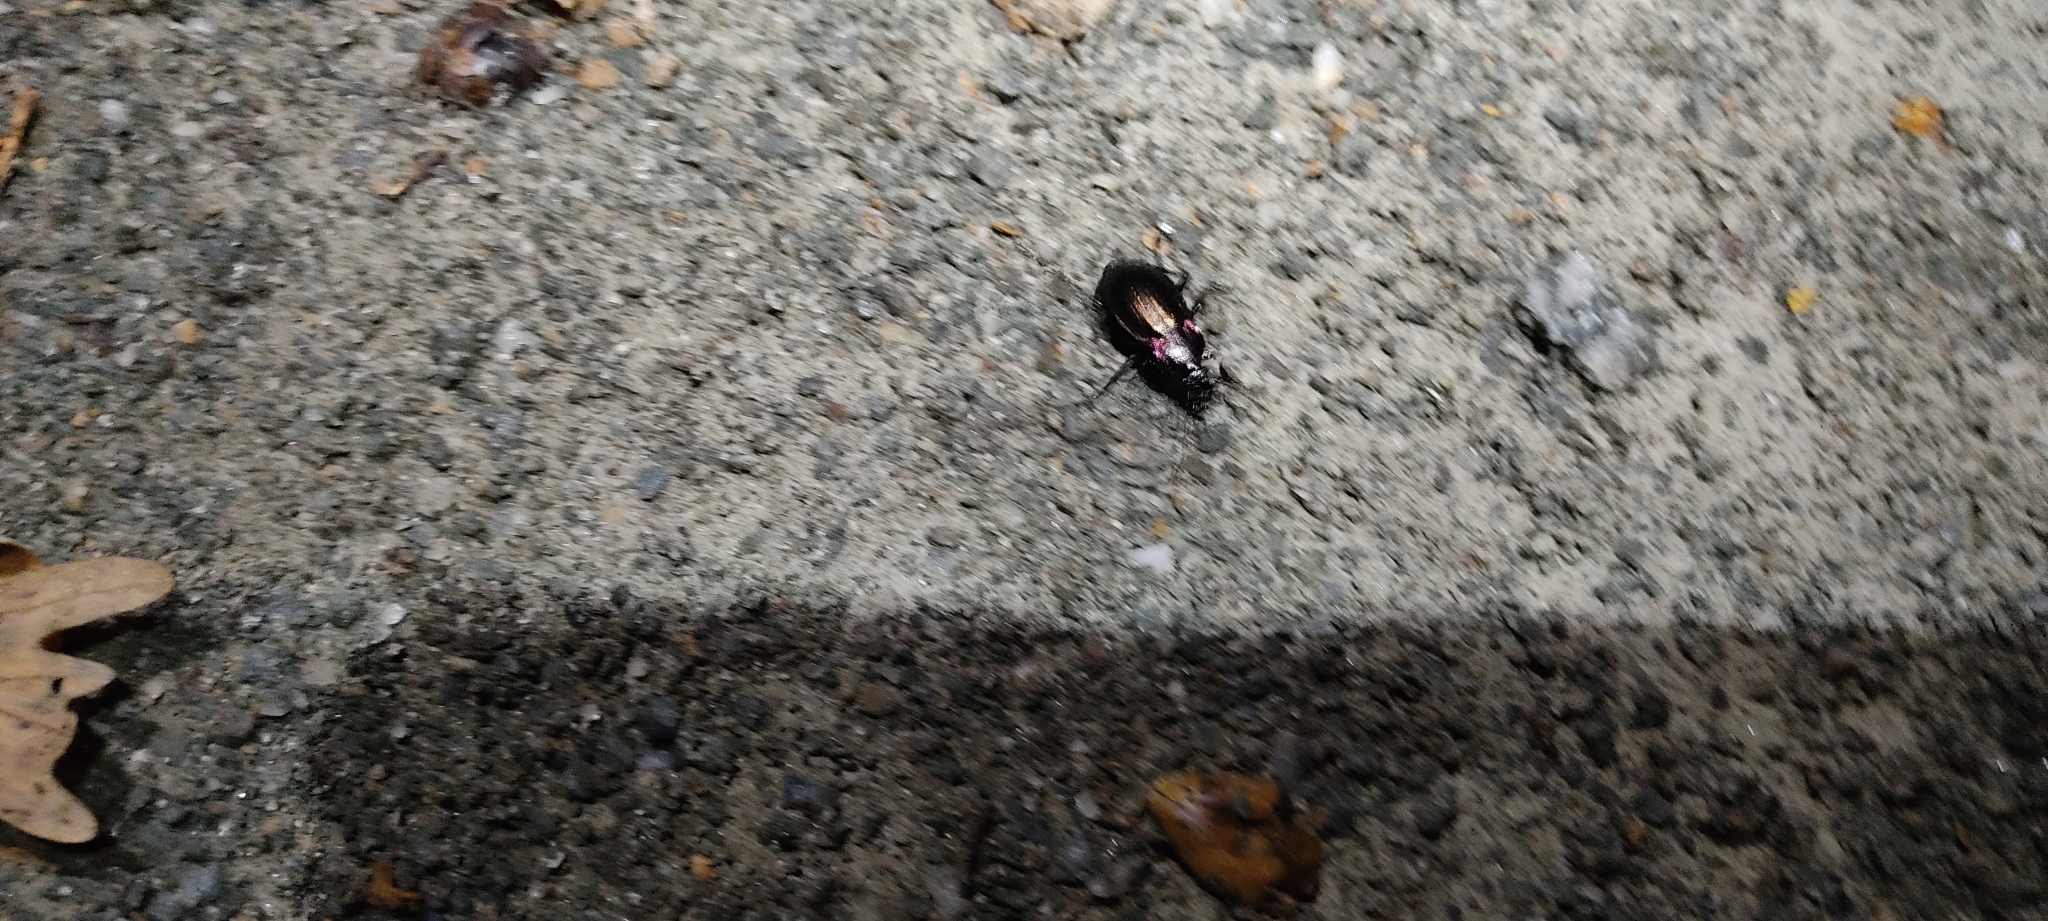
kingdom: Animalia
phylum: Arthropoda
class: Insecta
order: Coleoptera
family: Carabidae
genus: Carabus
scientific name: Carabus nemoralis
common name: European ground beetle
